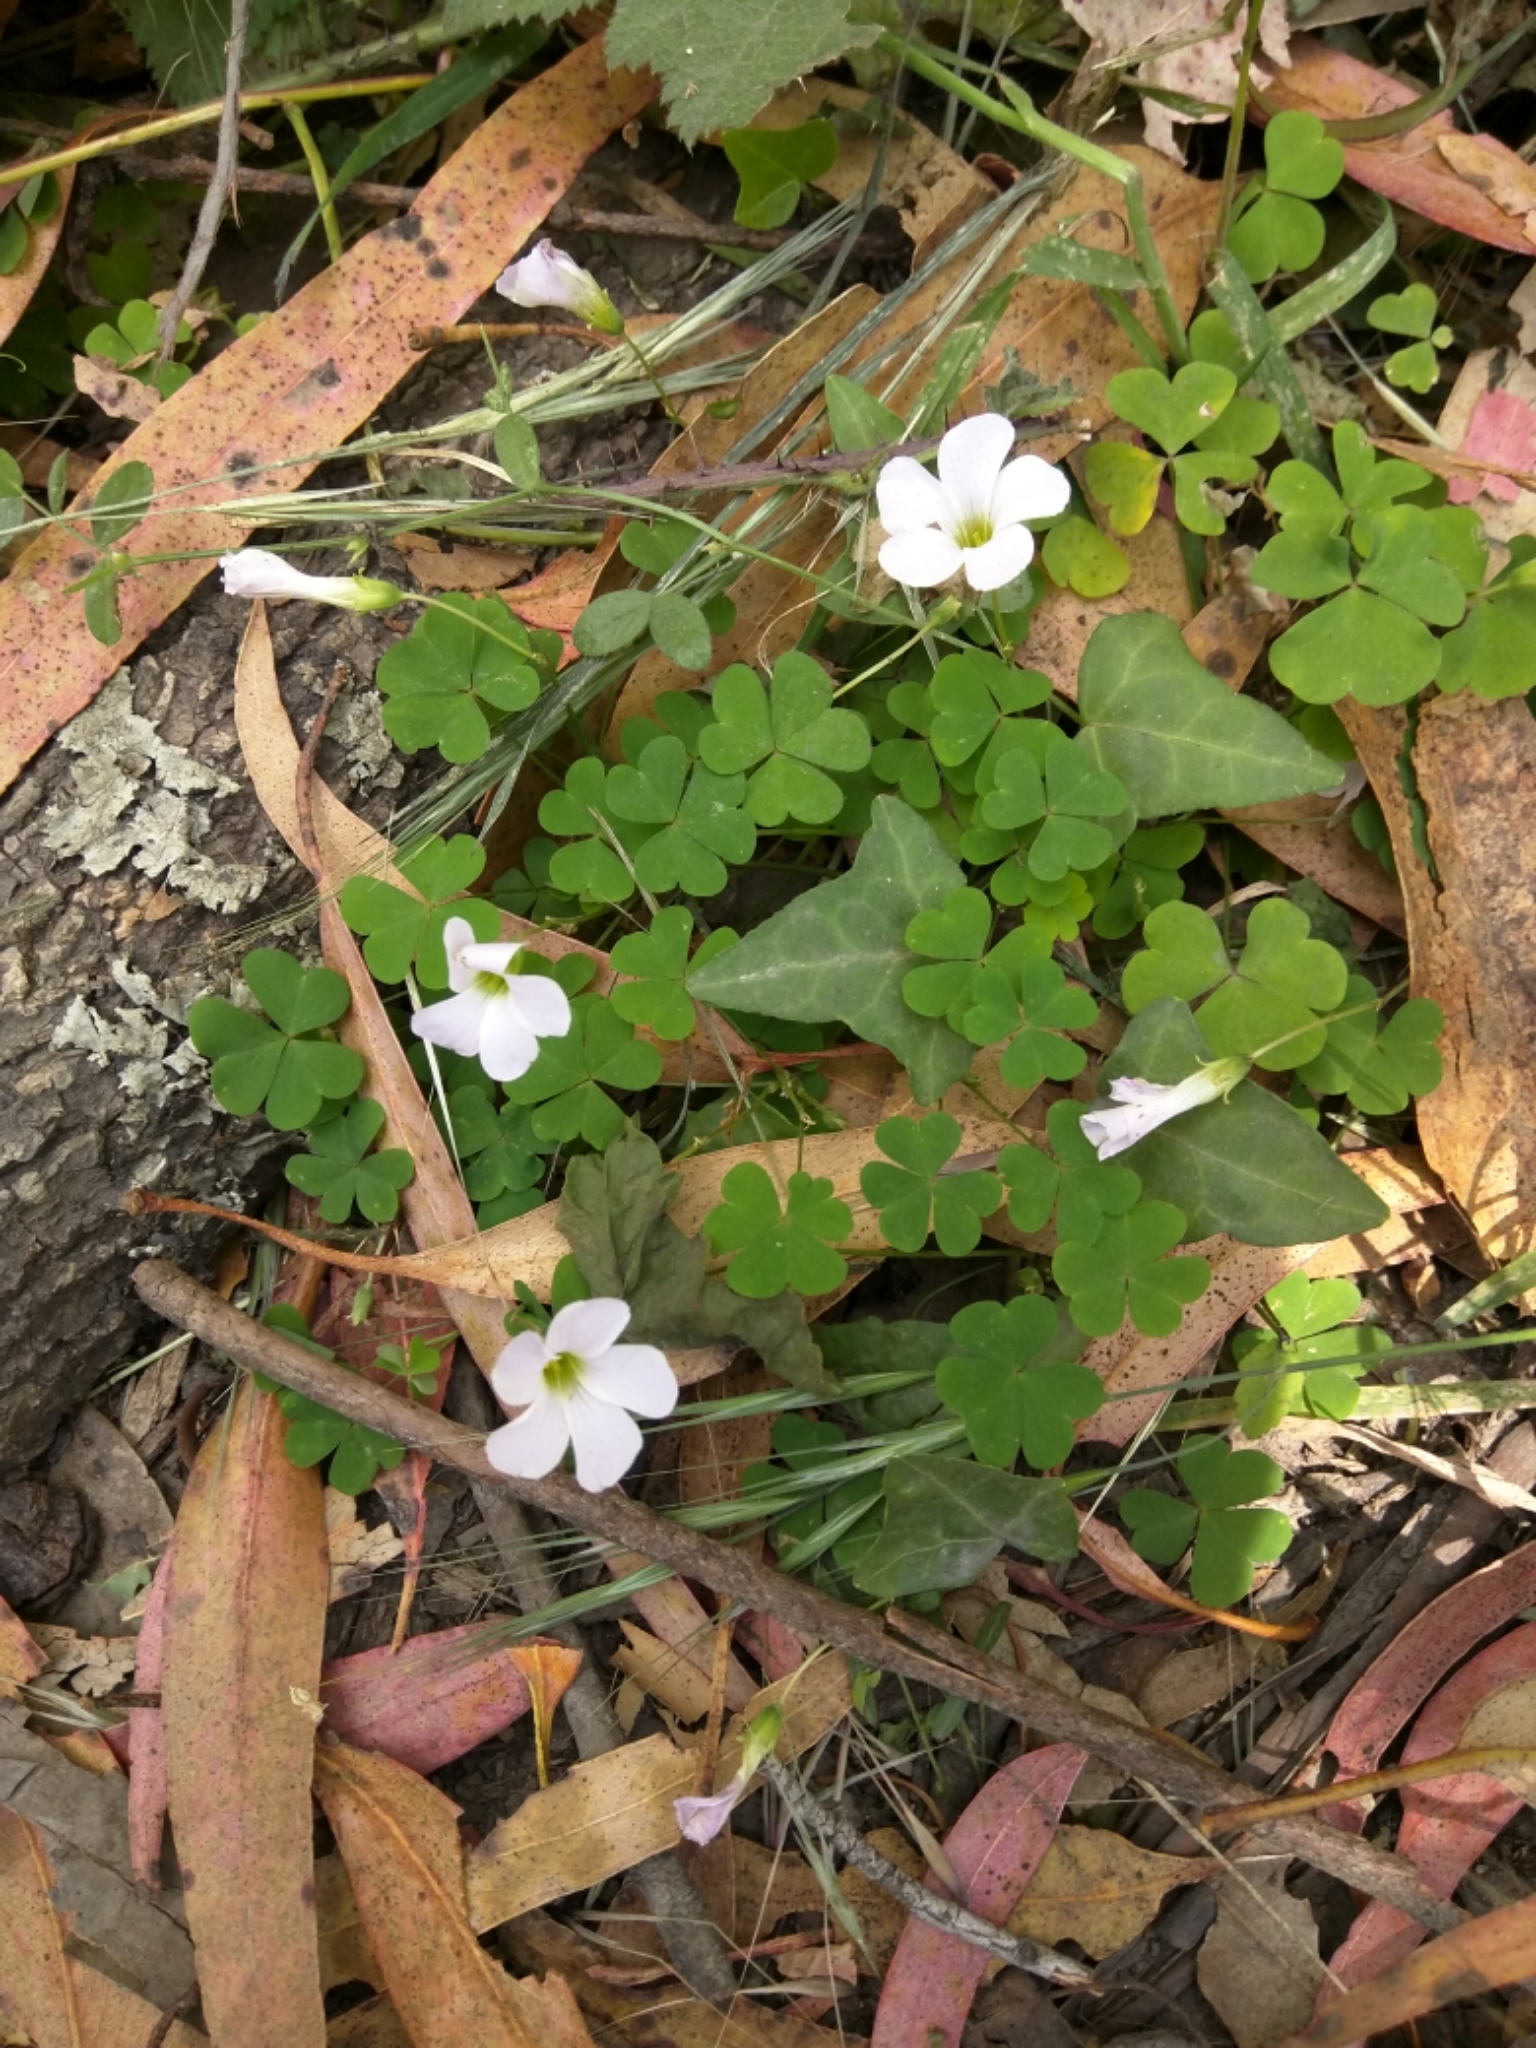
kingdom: Plantae
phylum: Tracheophyta
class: Magnoliopsida
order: Oxalidales
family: Oxalidaceae
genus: Oxalis
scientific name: Oxalis incarnata
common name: Pale pink-sorrel
